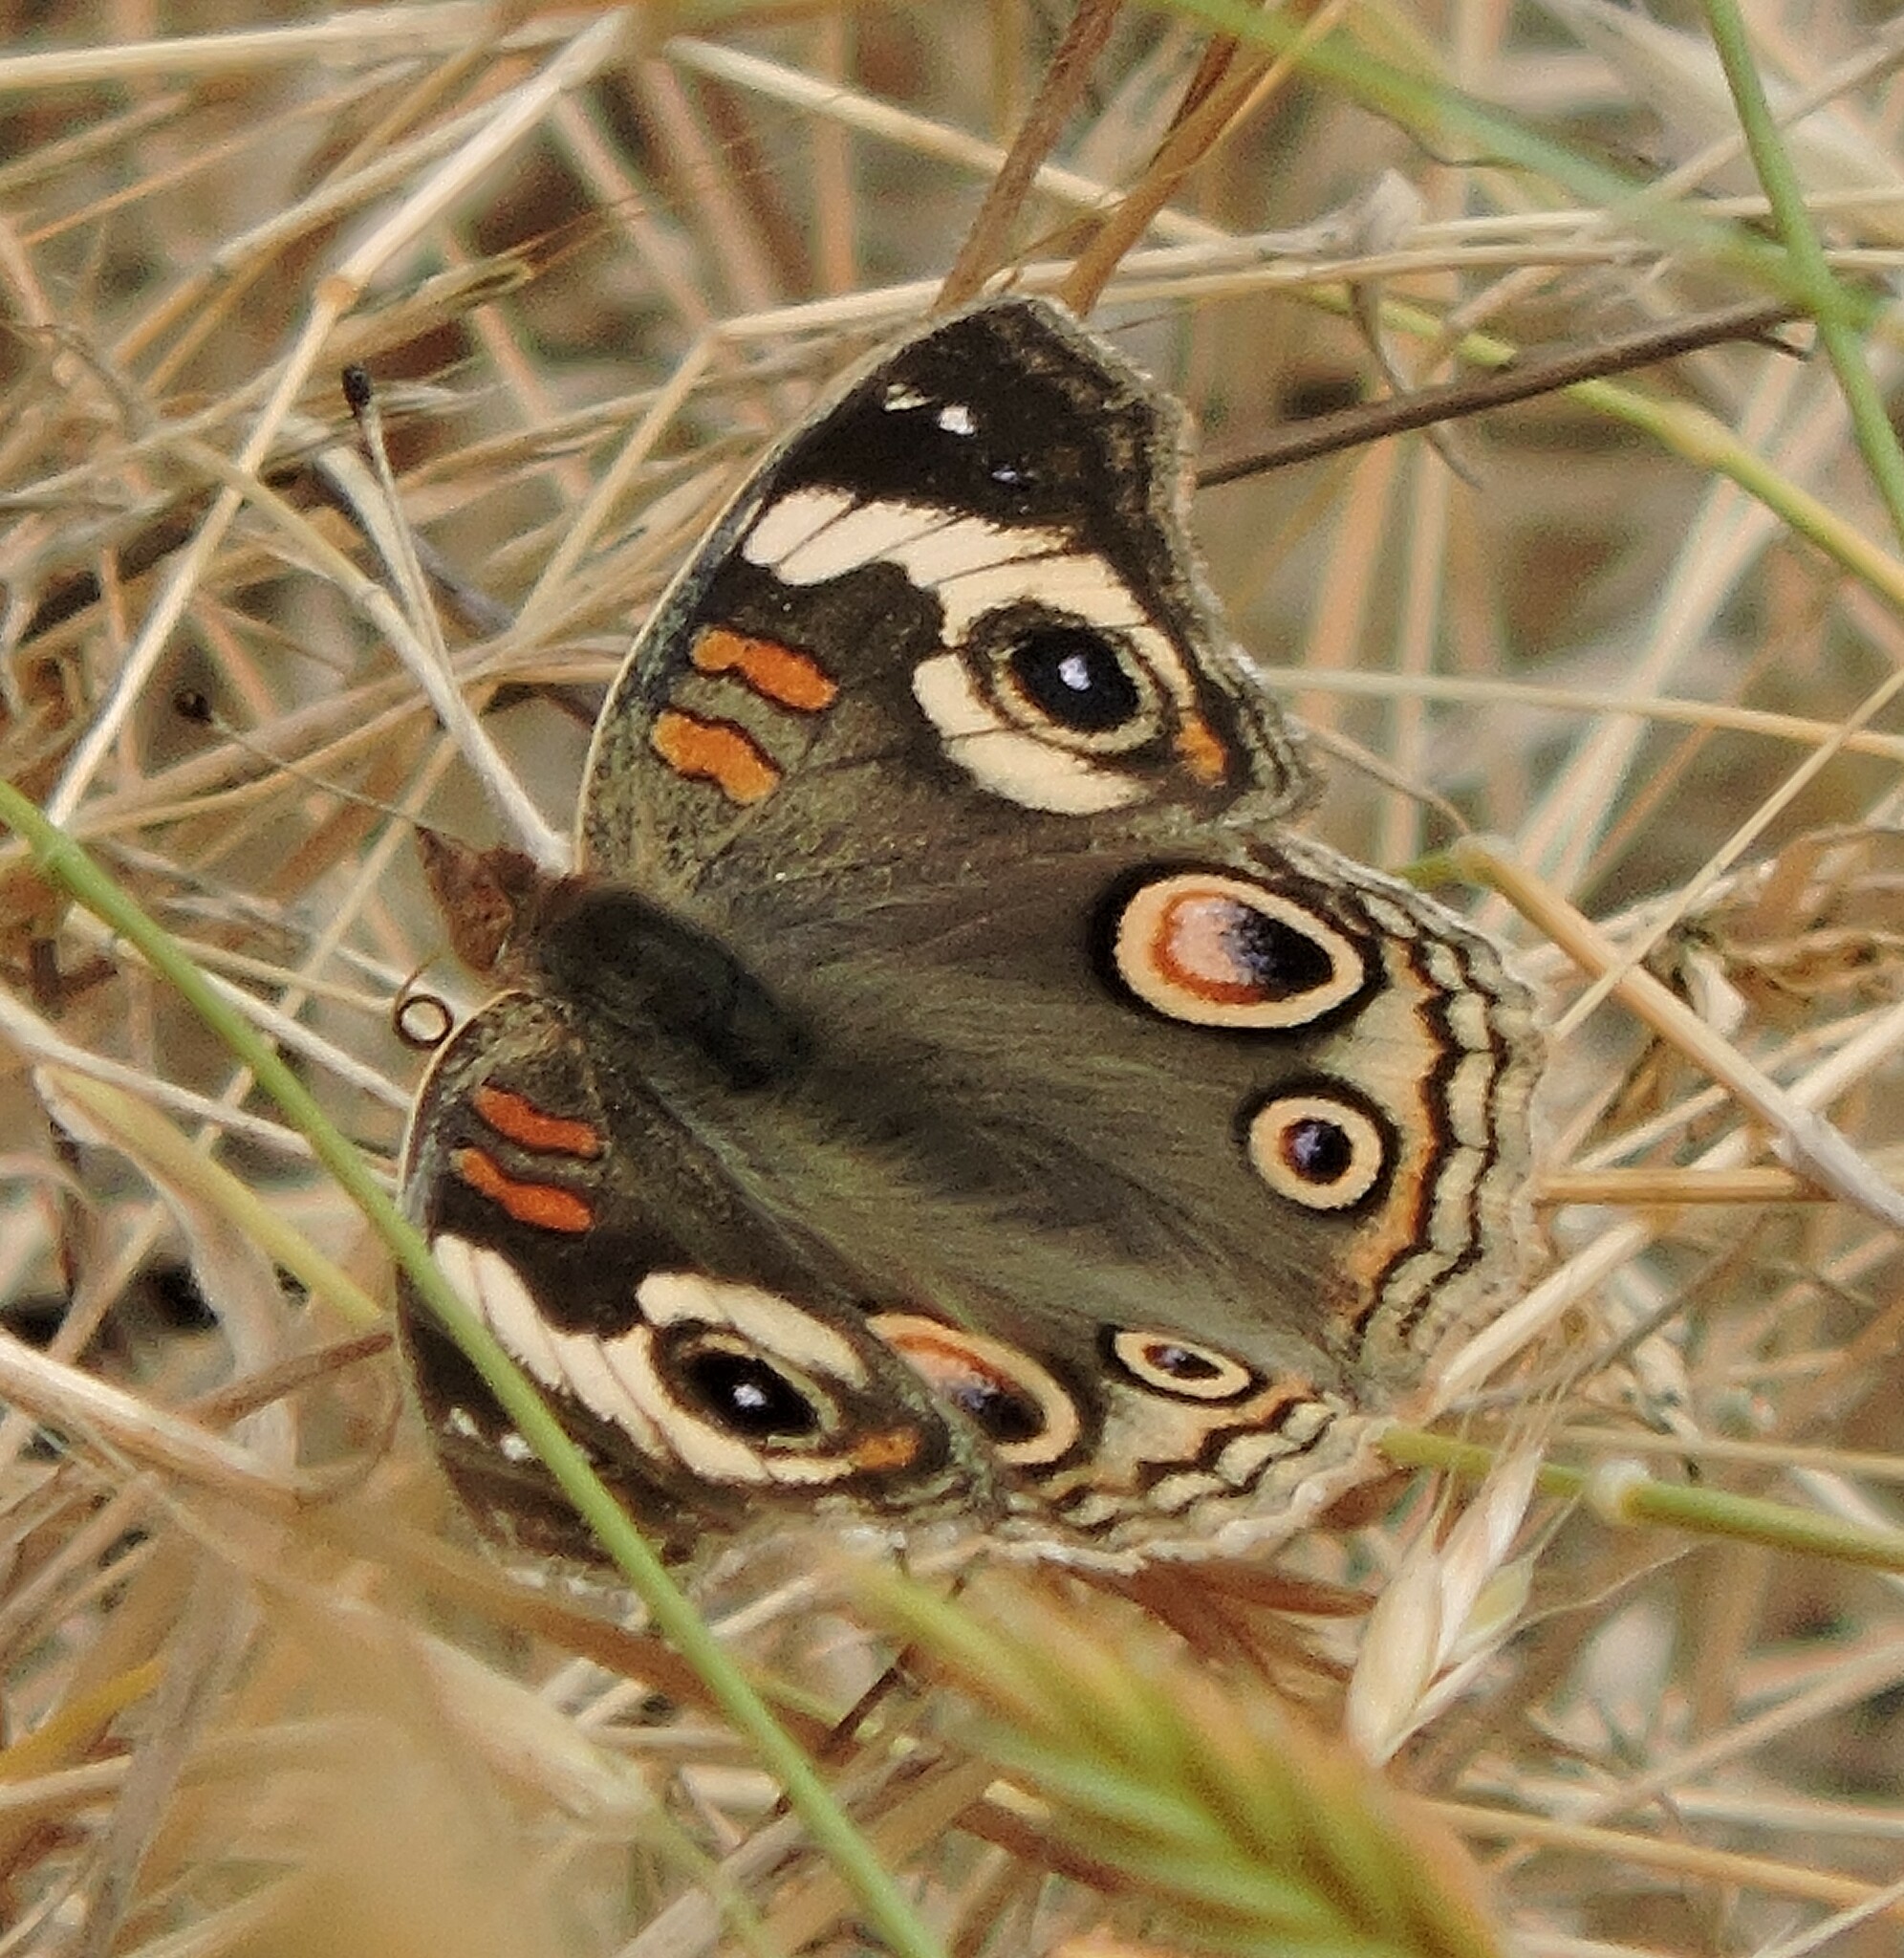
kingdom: Animalia
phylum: Arthropoda
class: Insecta
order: Lepidoptera
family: Nymphalidae
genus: Junonia
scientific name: Junonia grisea
